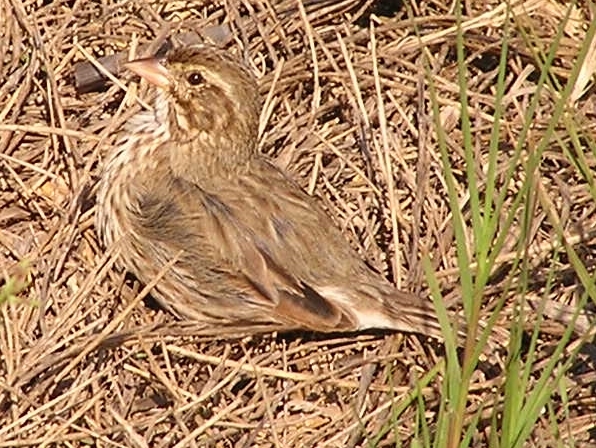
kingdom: Animalia
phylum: Chordata
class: Aves
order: Passeriformes
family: Passerellidae
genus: Passerculus
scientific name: Passerculus sandwichensis
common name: Savannah sparrow
